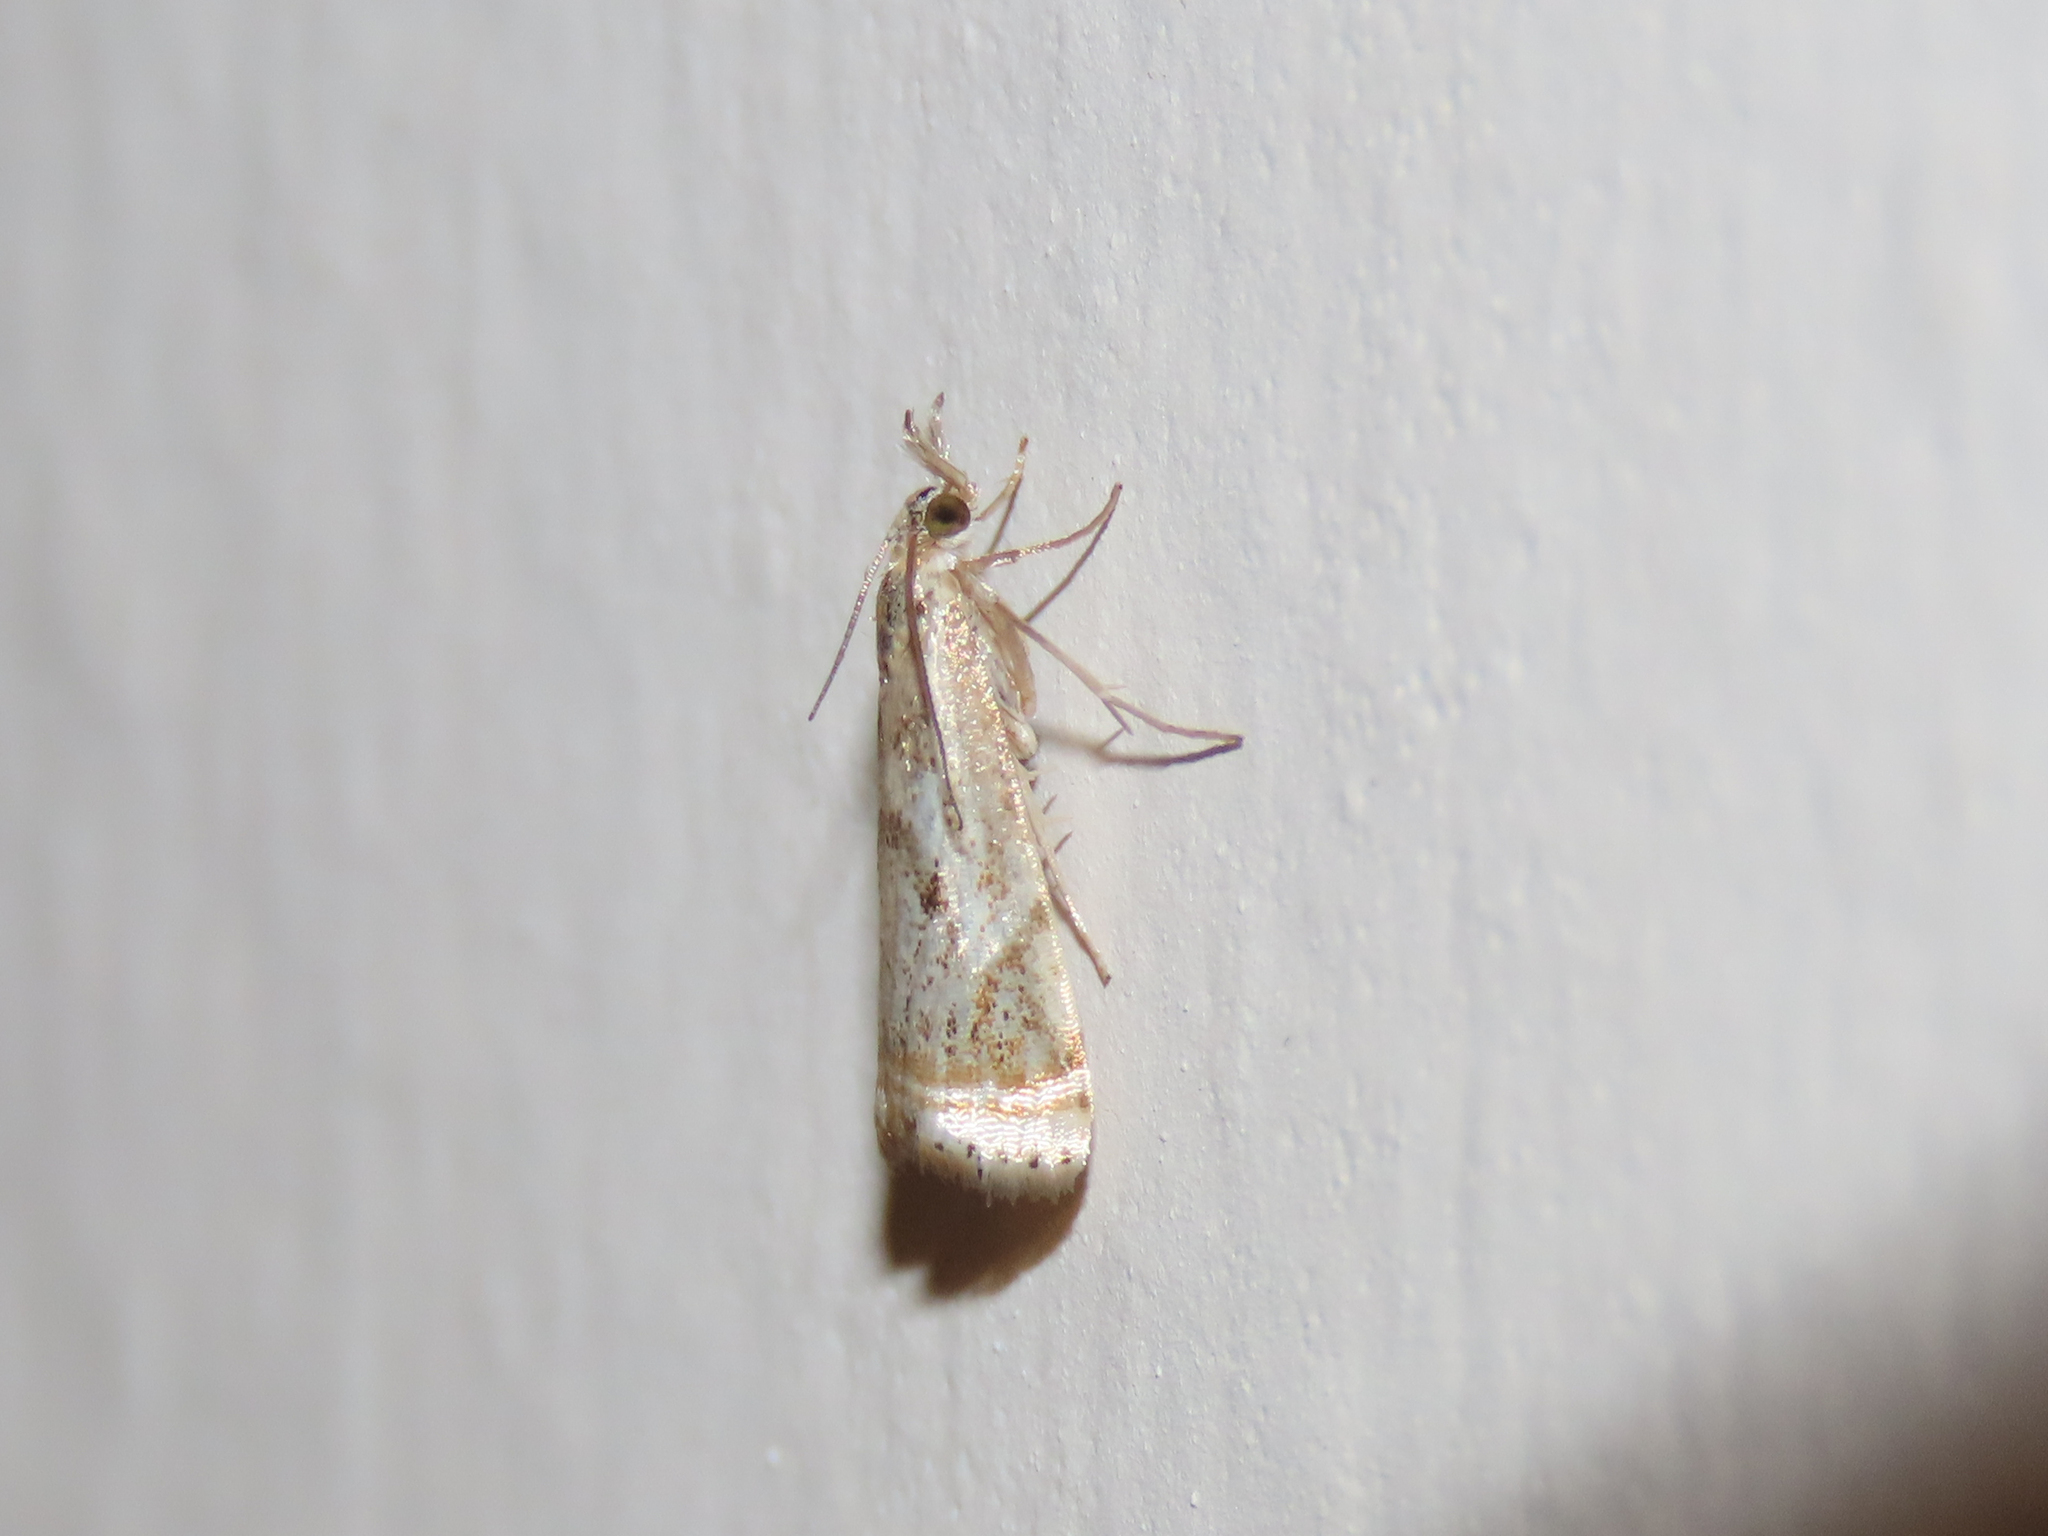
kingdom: Animalia
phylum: Arthropoda
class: Insecta
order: Lepidoptera
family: Crambidae
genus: Microcrambus
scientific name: Microcrambus elegans
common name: Elegant grass-veneer
